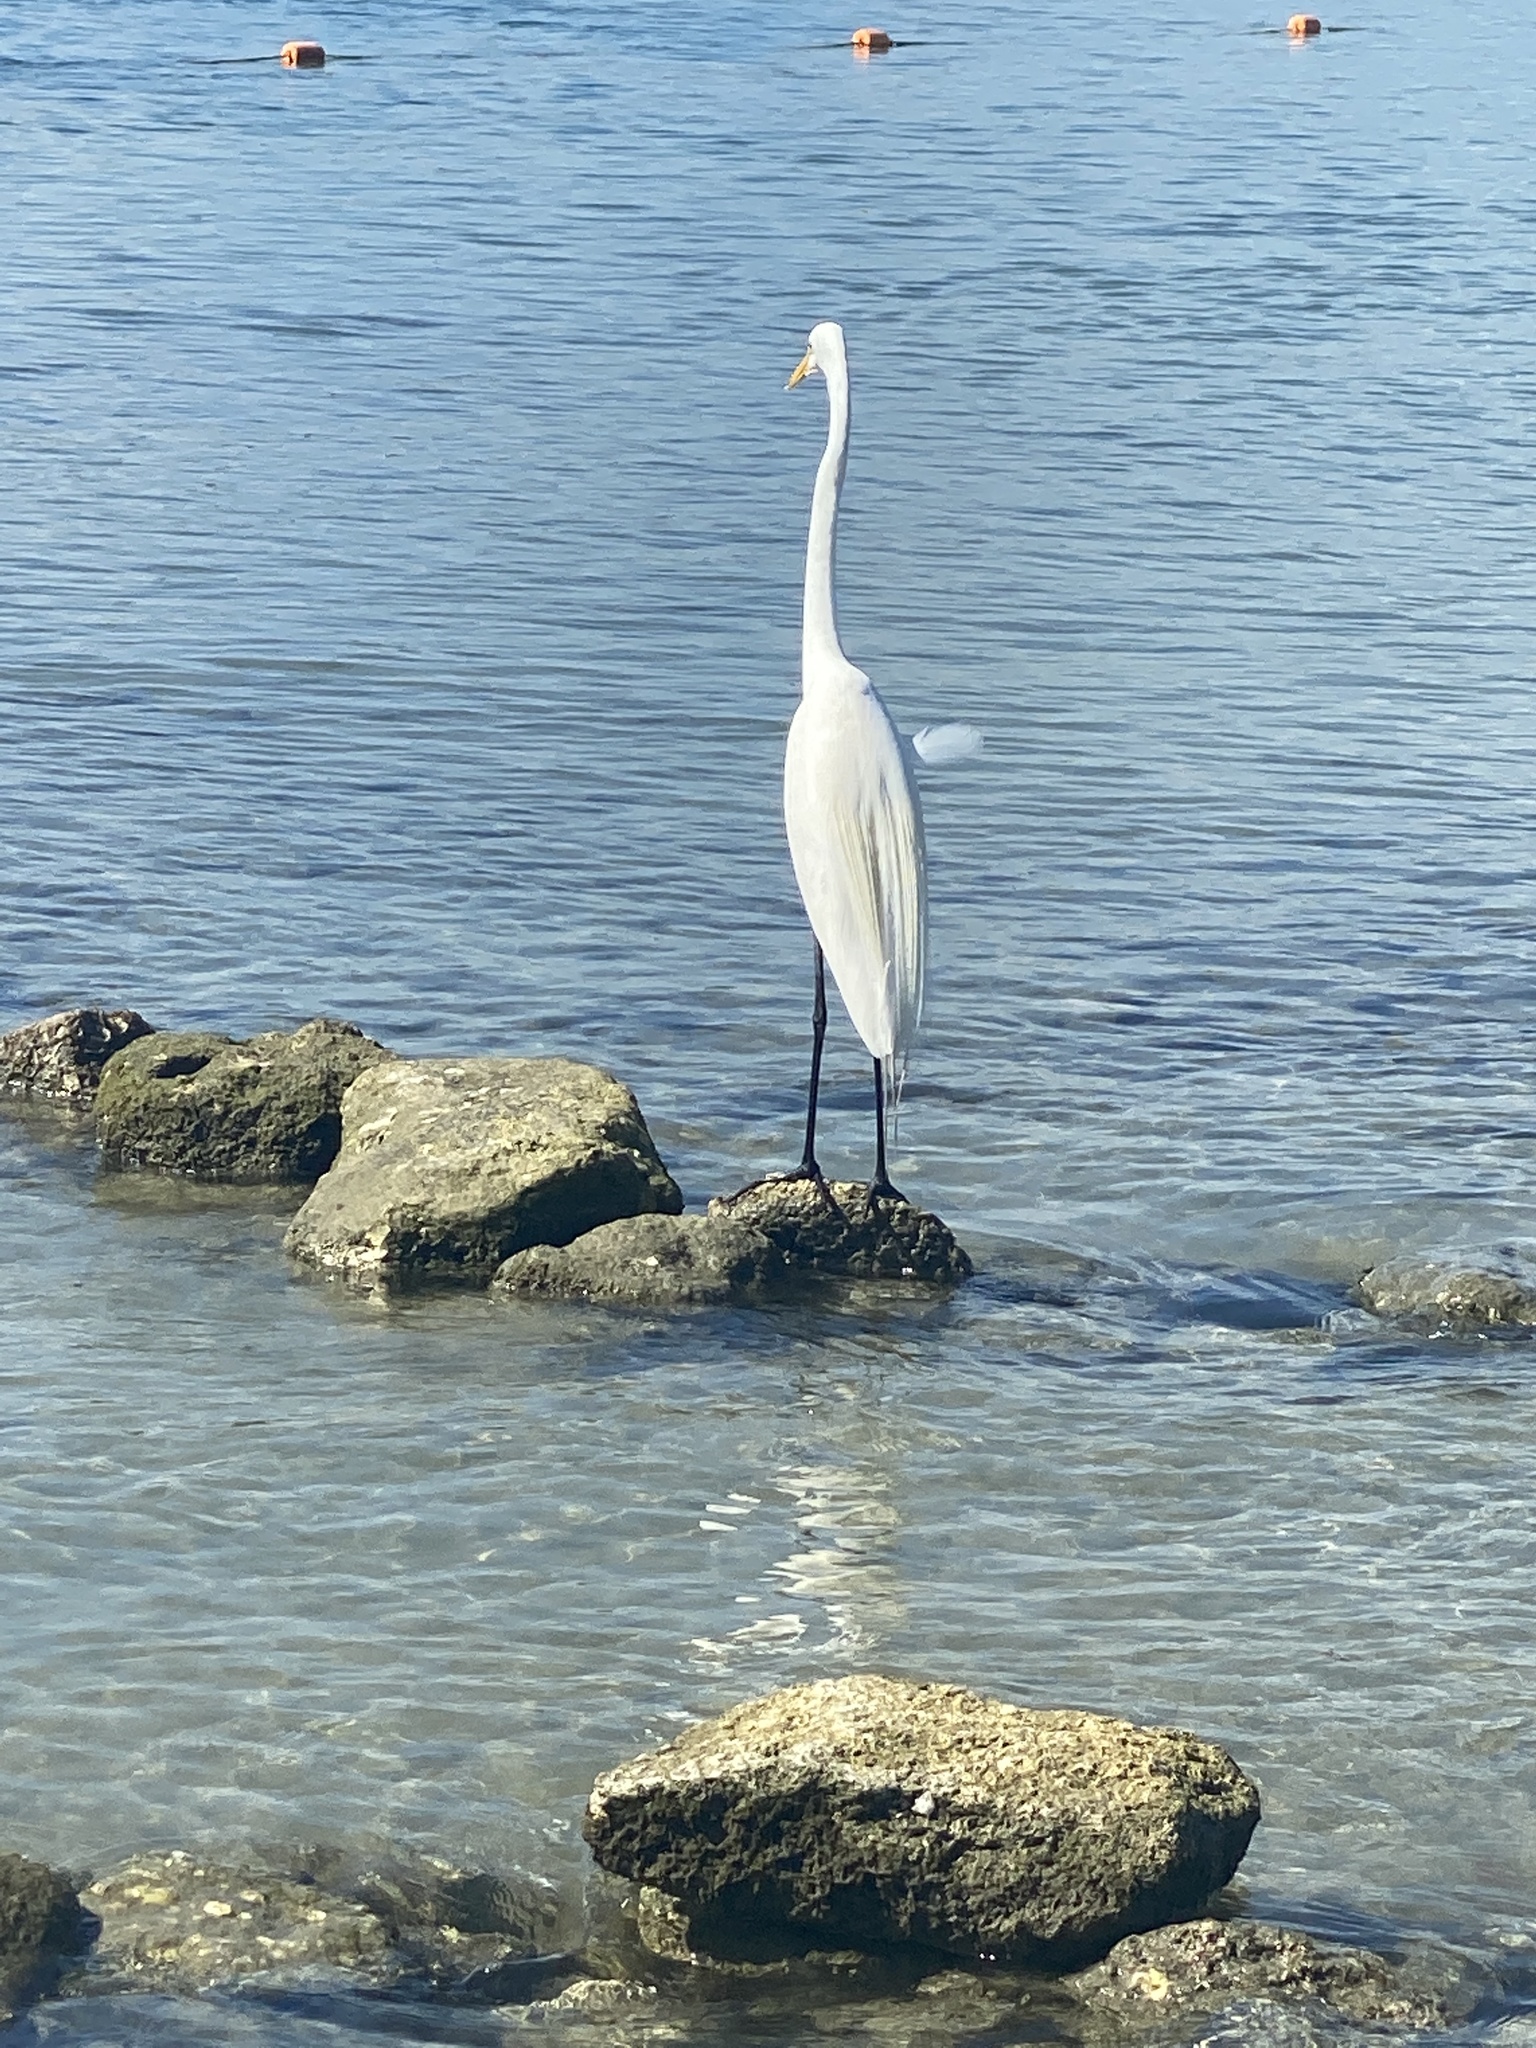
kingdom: Animalia
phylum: Chordata
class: Aves
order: Pelecaniformes
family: Ardeidae
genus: Ardea
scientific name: Ardea alba
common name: Great egret
